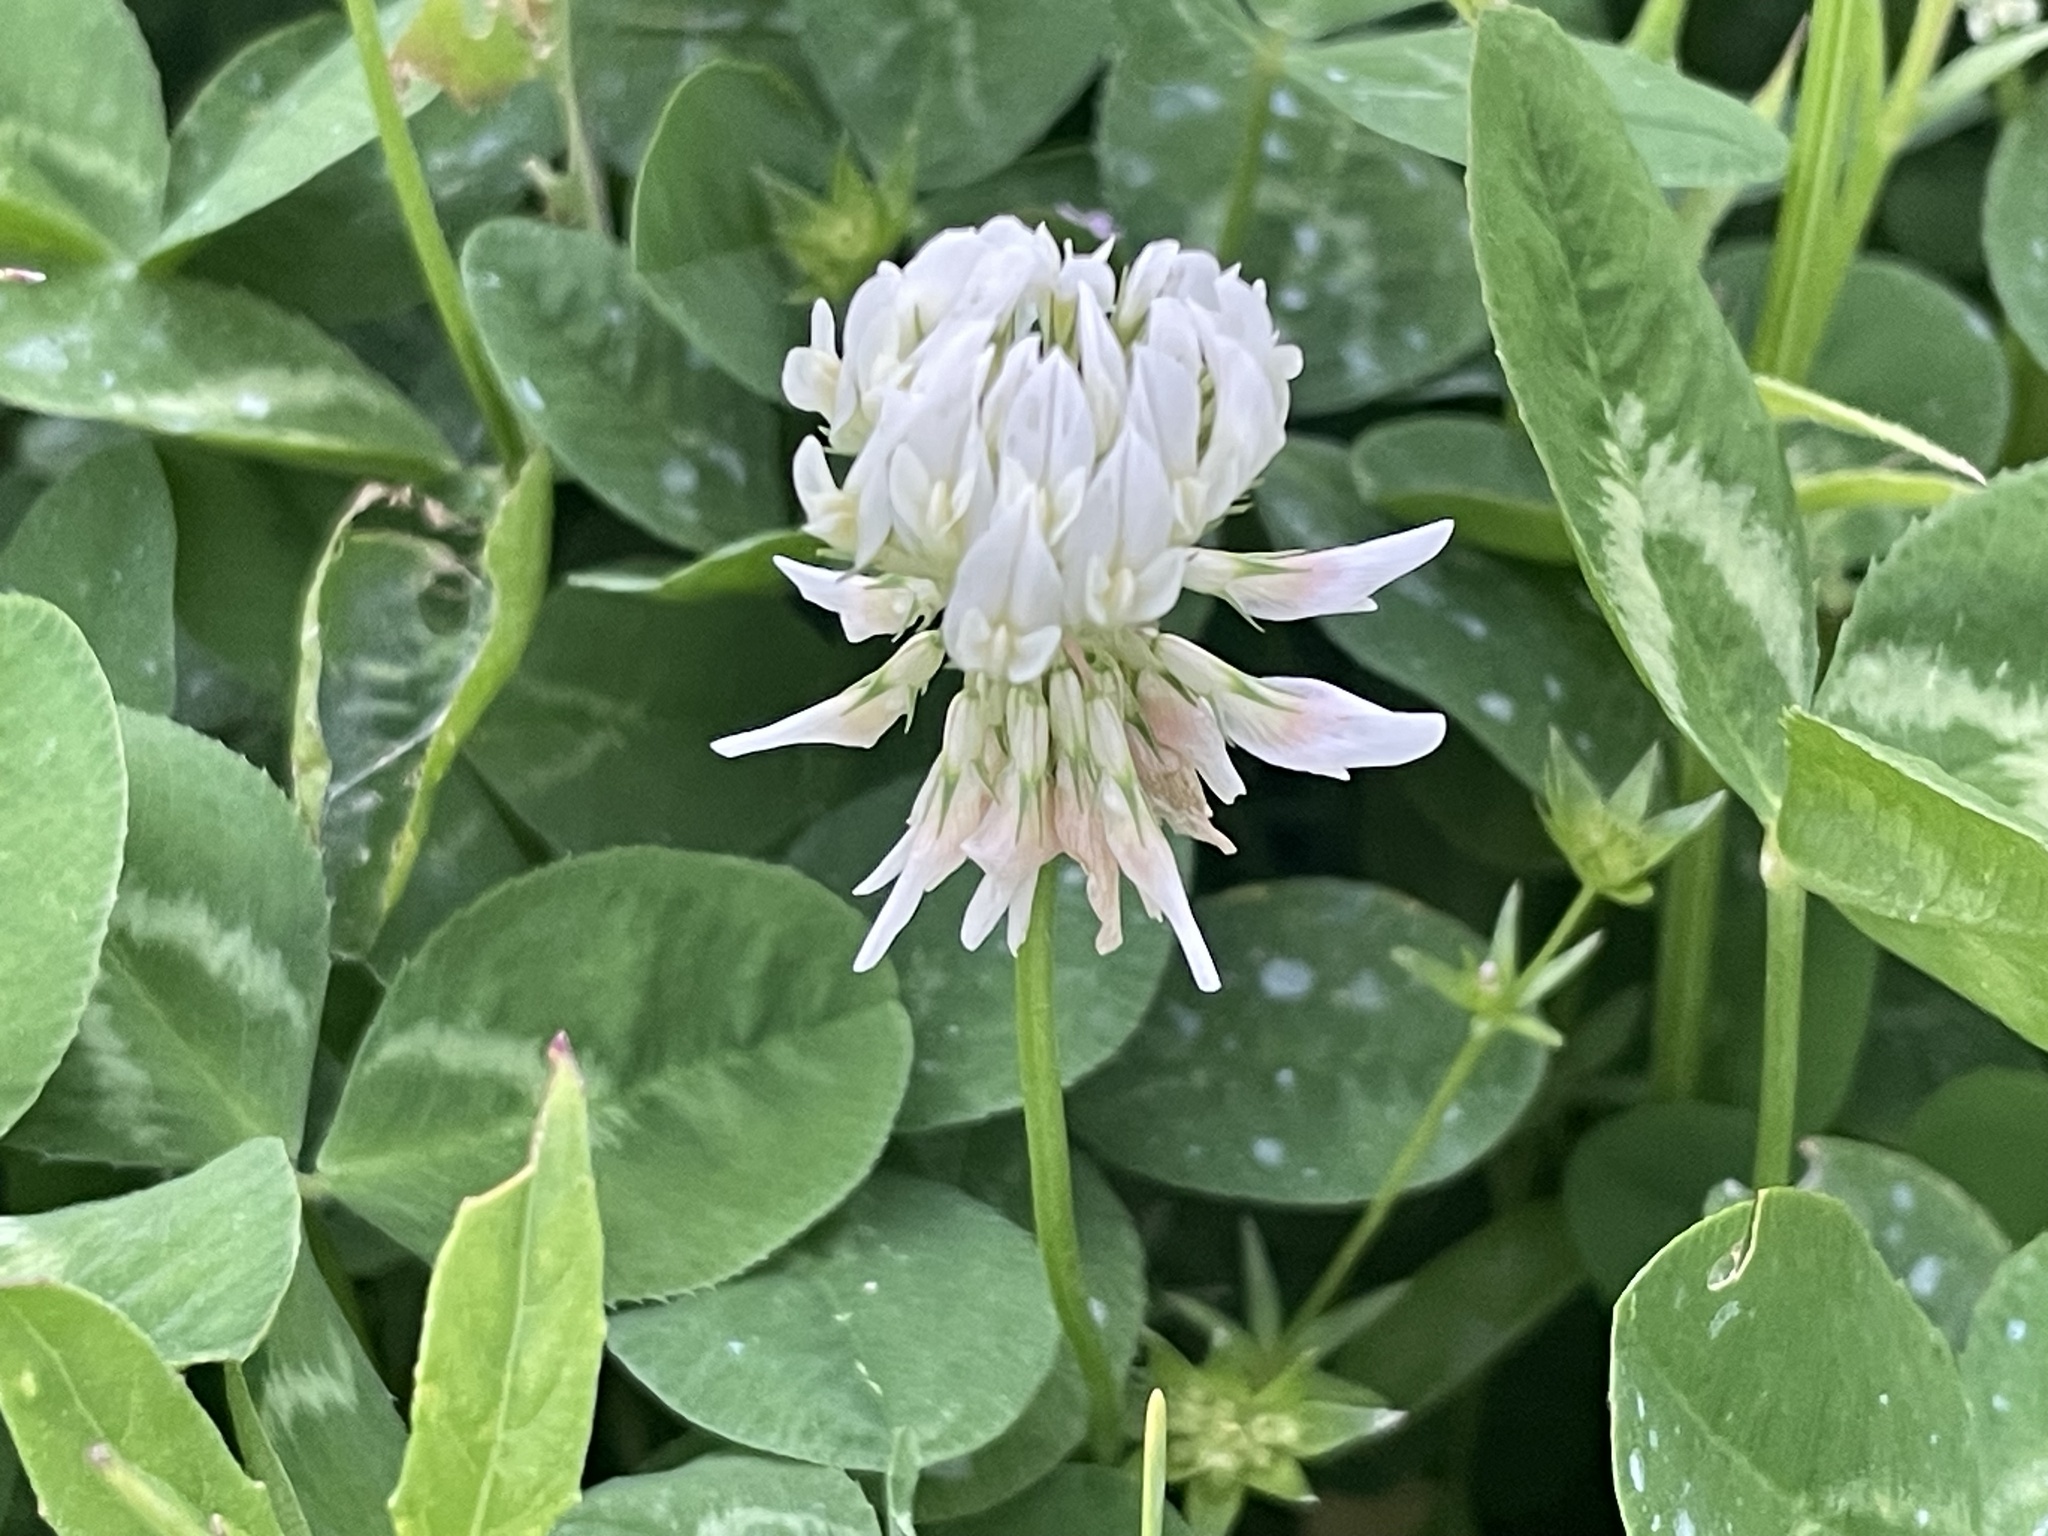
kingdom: Plantae
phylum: Tracheophyta
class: Magnoliopsida
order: Fabales
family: Fabaceae
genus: Trifolium
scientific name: Trifolium repens
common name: White clover
